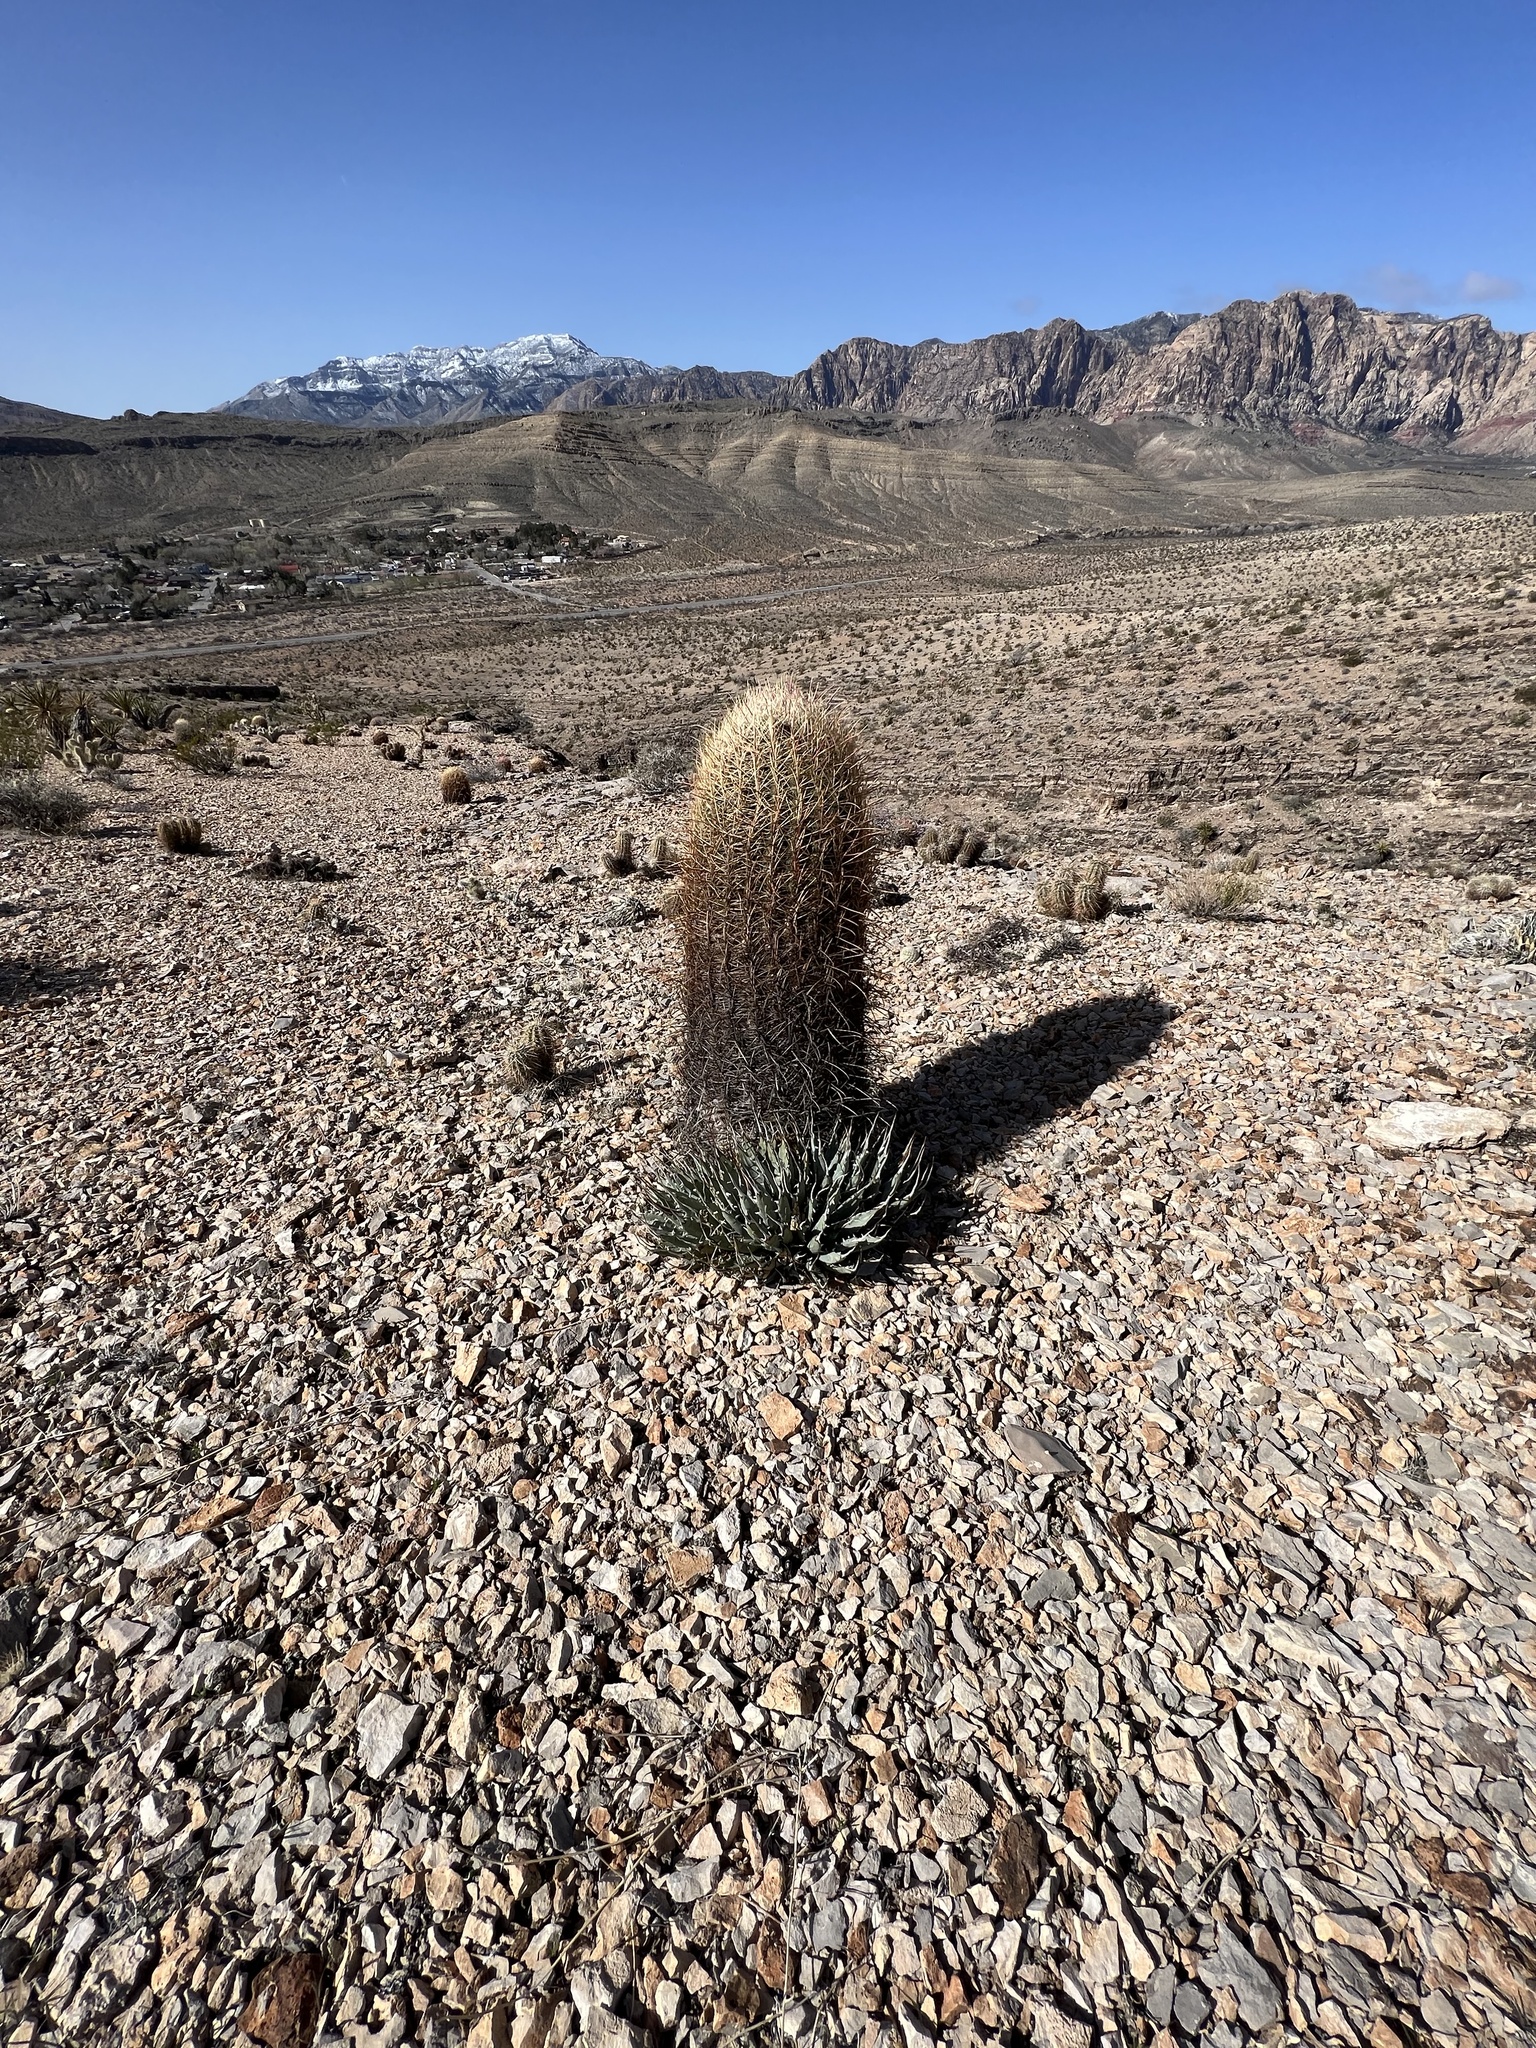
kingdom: Plantae
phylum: Tracheophyta
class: Magnoliopsida
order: Caryophyllales
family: Cactaceae
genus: Ferocactus
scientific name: Ferocactus cylindraceus
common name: California barrel cactus
